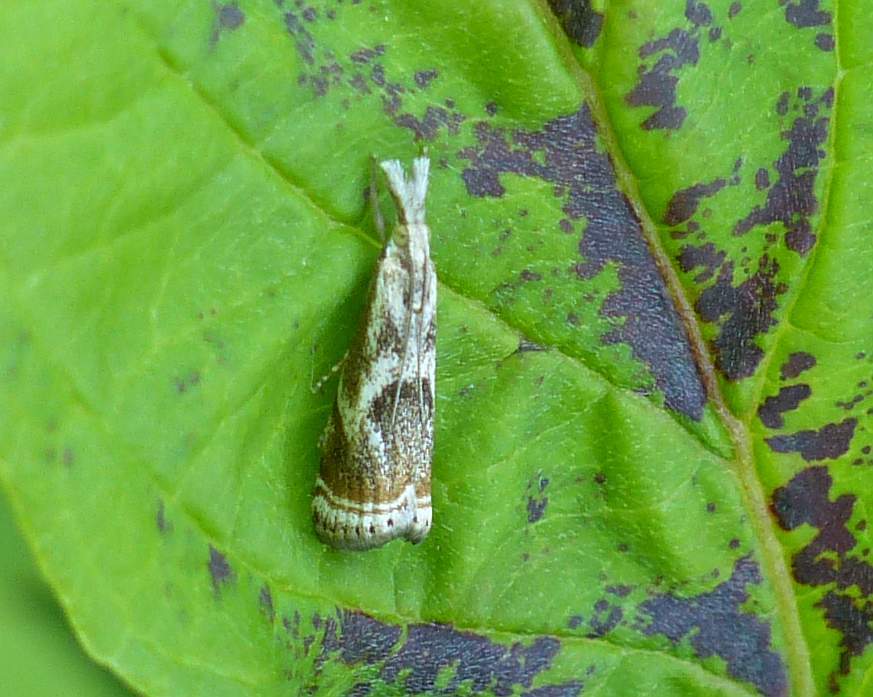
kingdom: Animalia
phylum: Arthropoda
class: Insecta
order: Lepidoptera
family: Crambidae
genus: Microcrambus
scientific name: Microcrambus elegans
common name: Elegant grass-veneer
